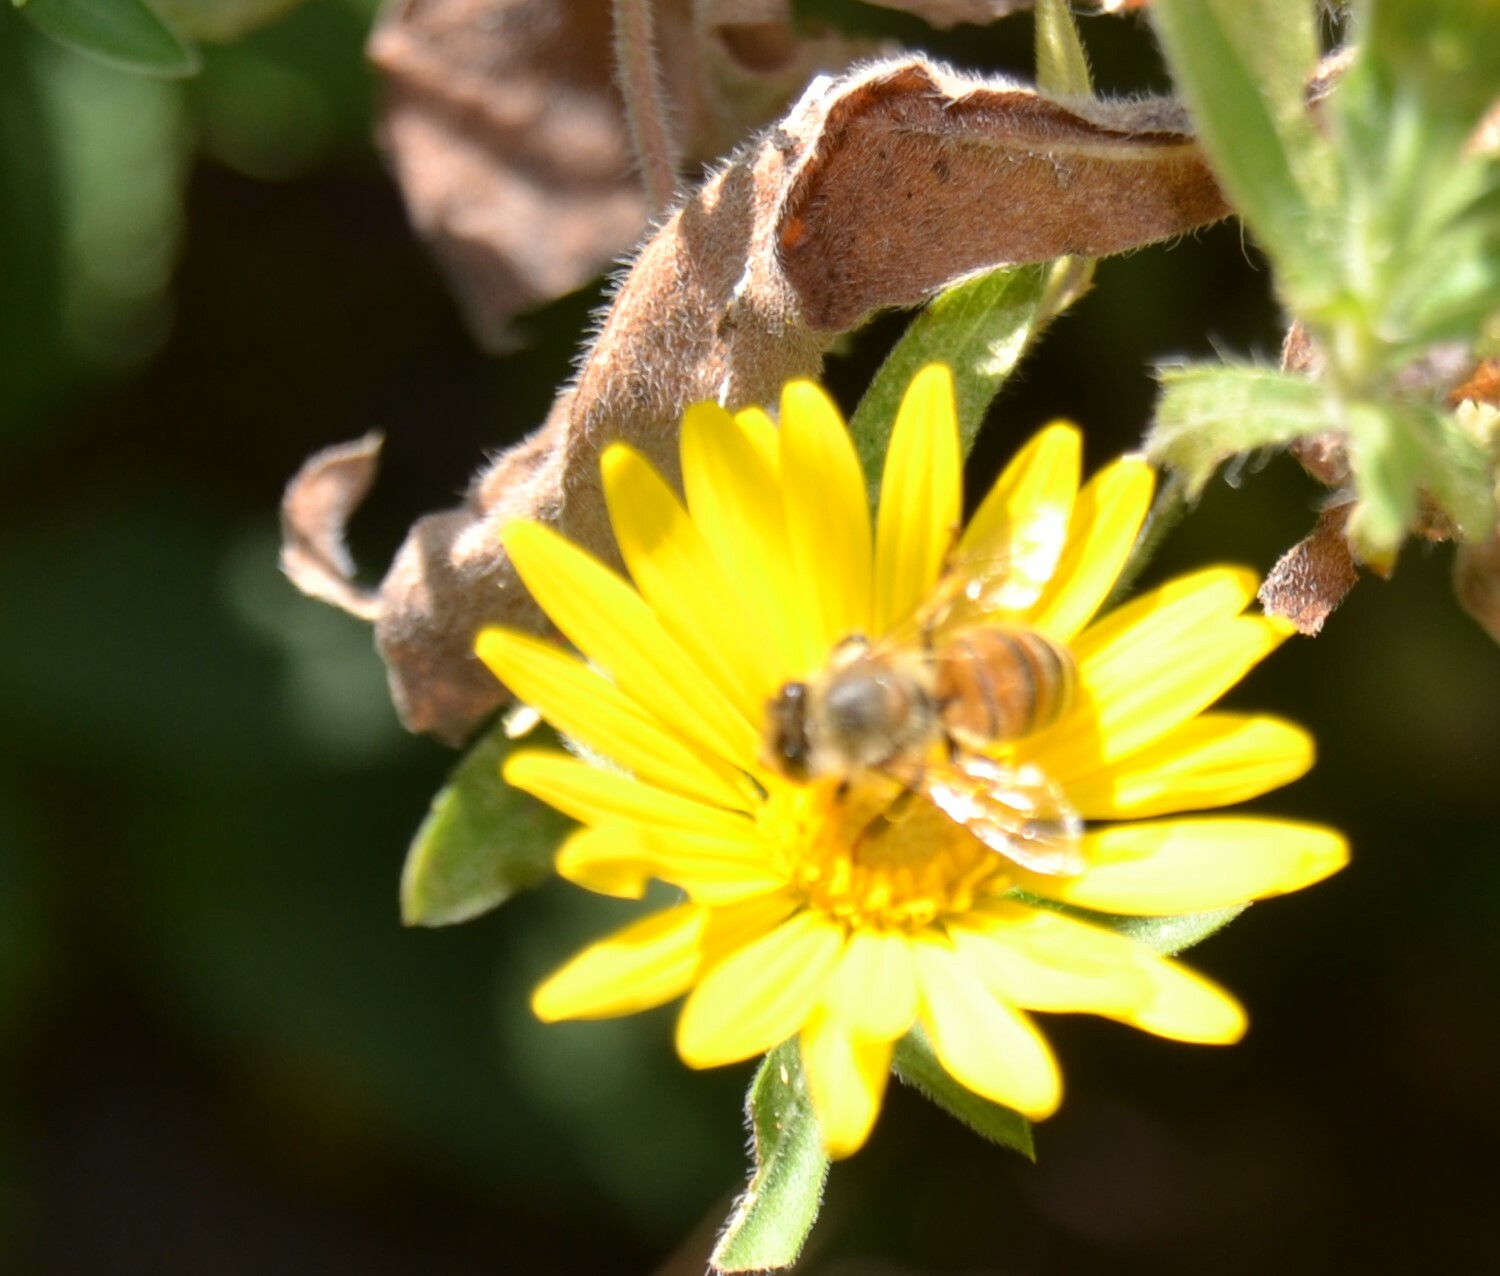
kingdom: Animalia
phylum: Arthropoda
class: Insecta
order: Hymenoptera
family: Apidae
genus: Apis
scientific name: Apis mellifera
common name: Honey bee
